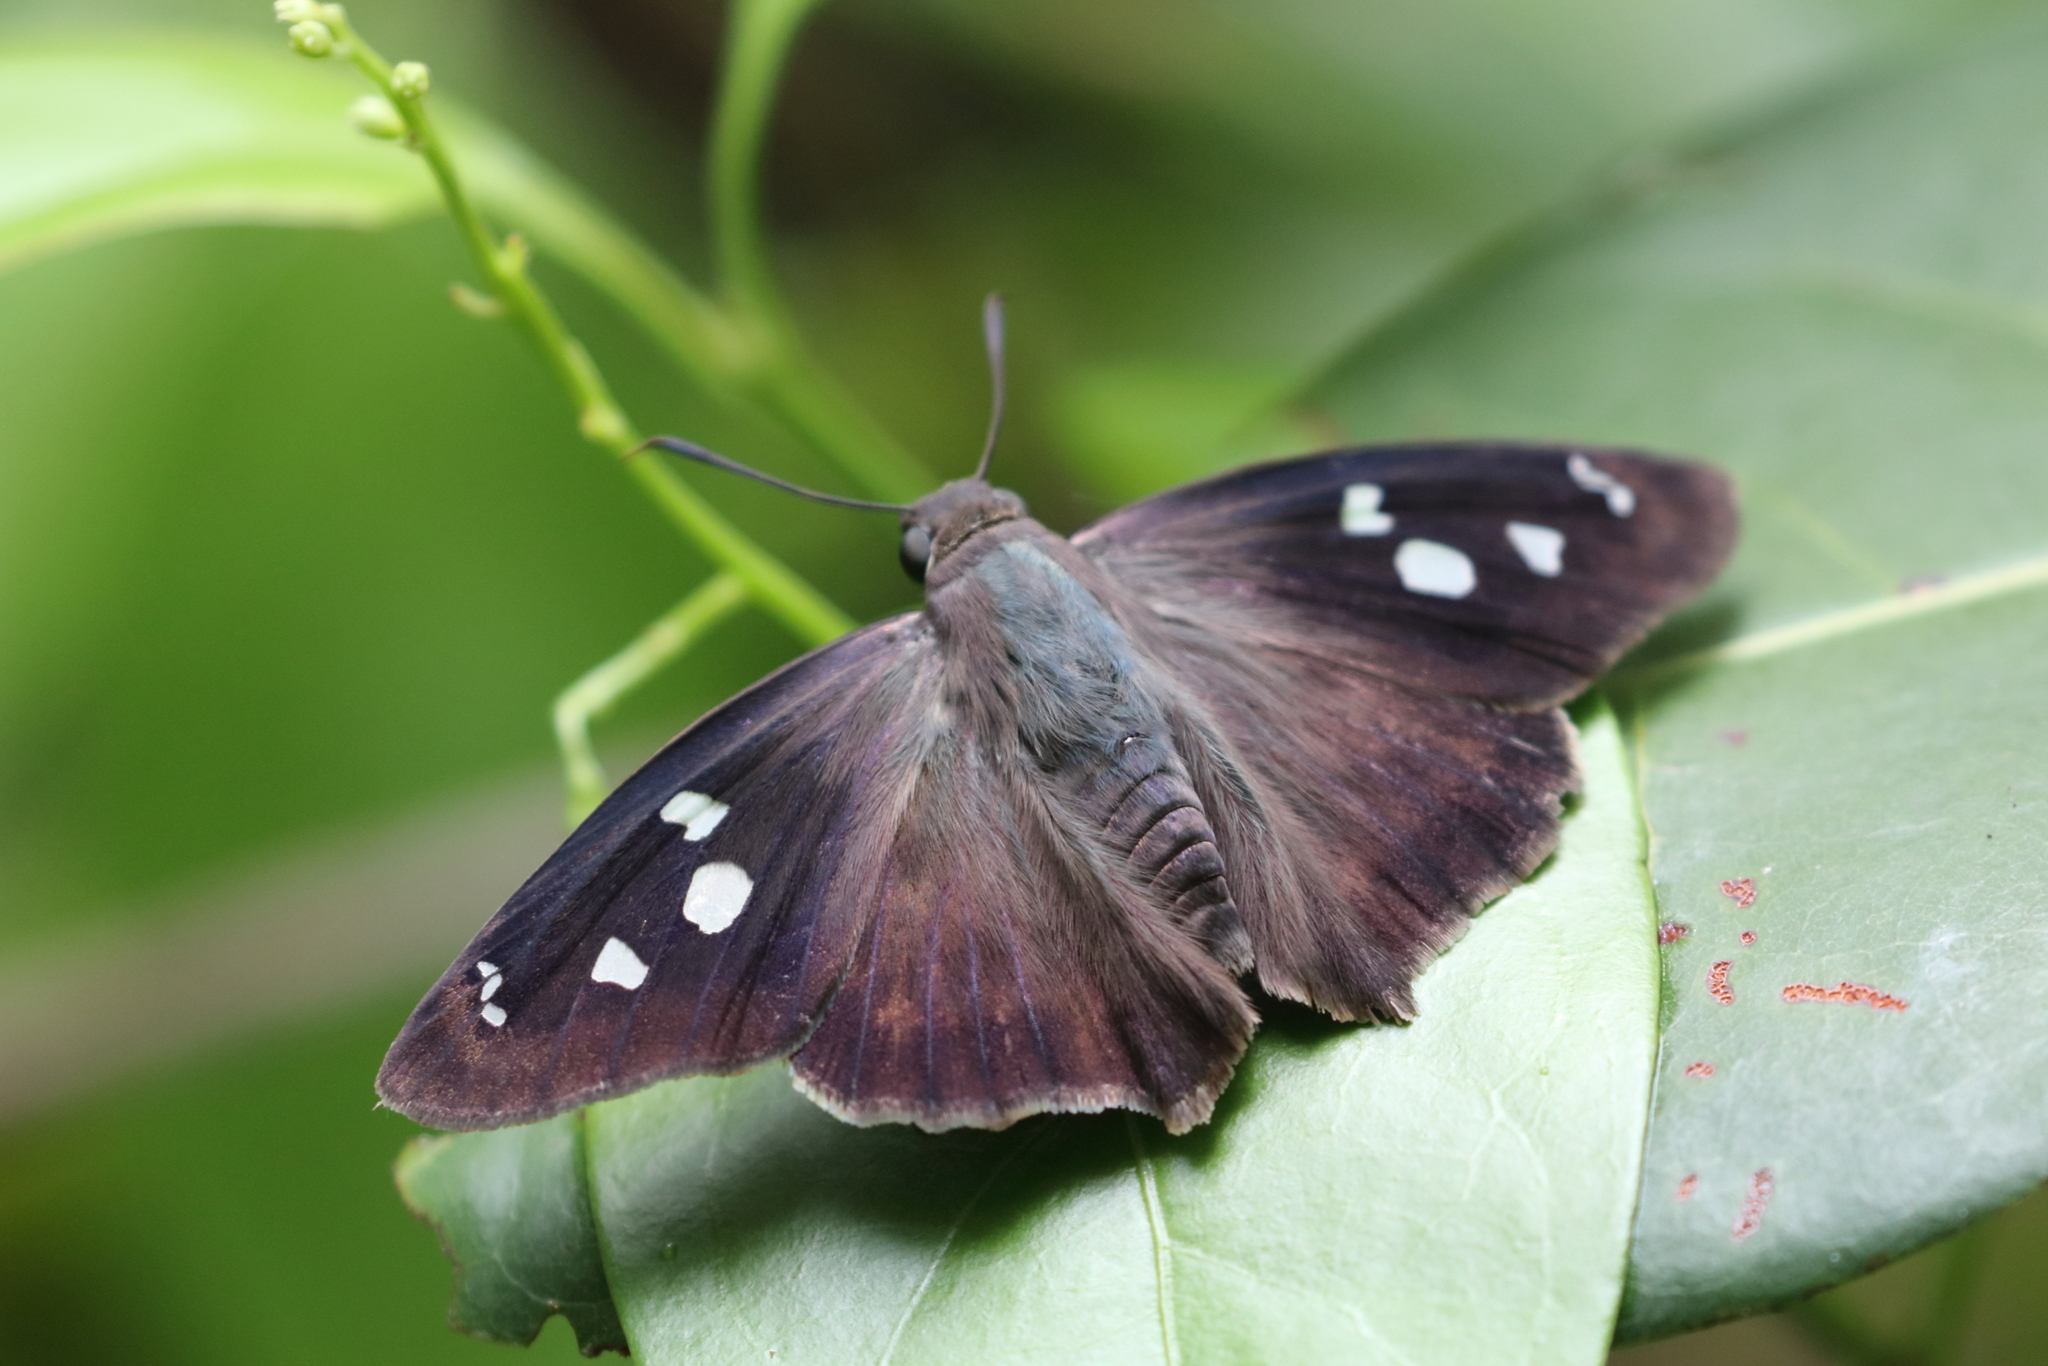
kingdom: Animalia
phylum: Arthropoda
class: Insecta
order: Lepidoptera
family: Hesperiidae
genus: Polygonus
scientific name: Polygonus leo
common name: Hammoch skipper
